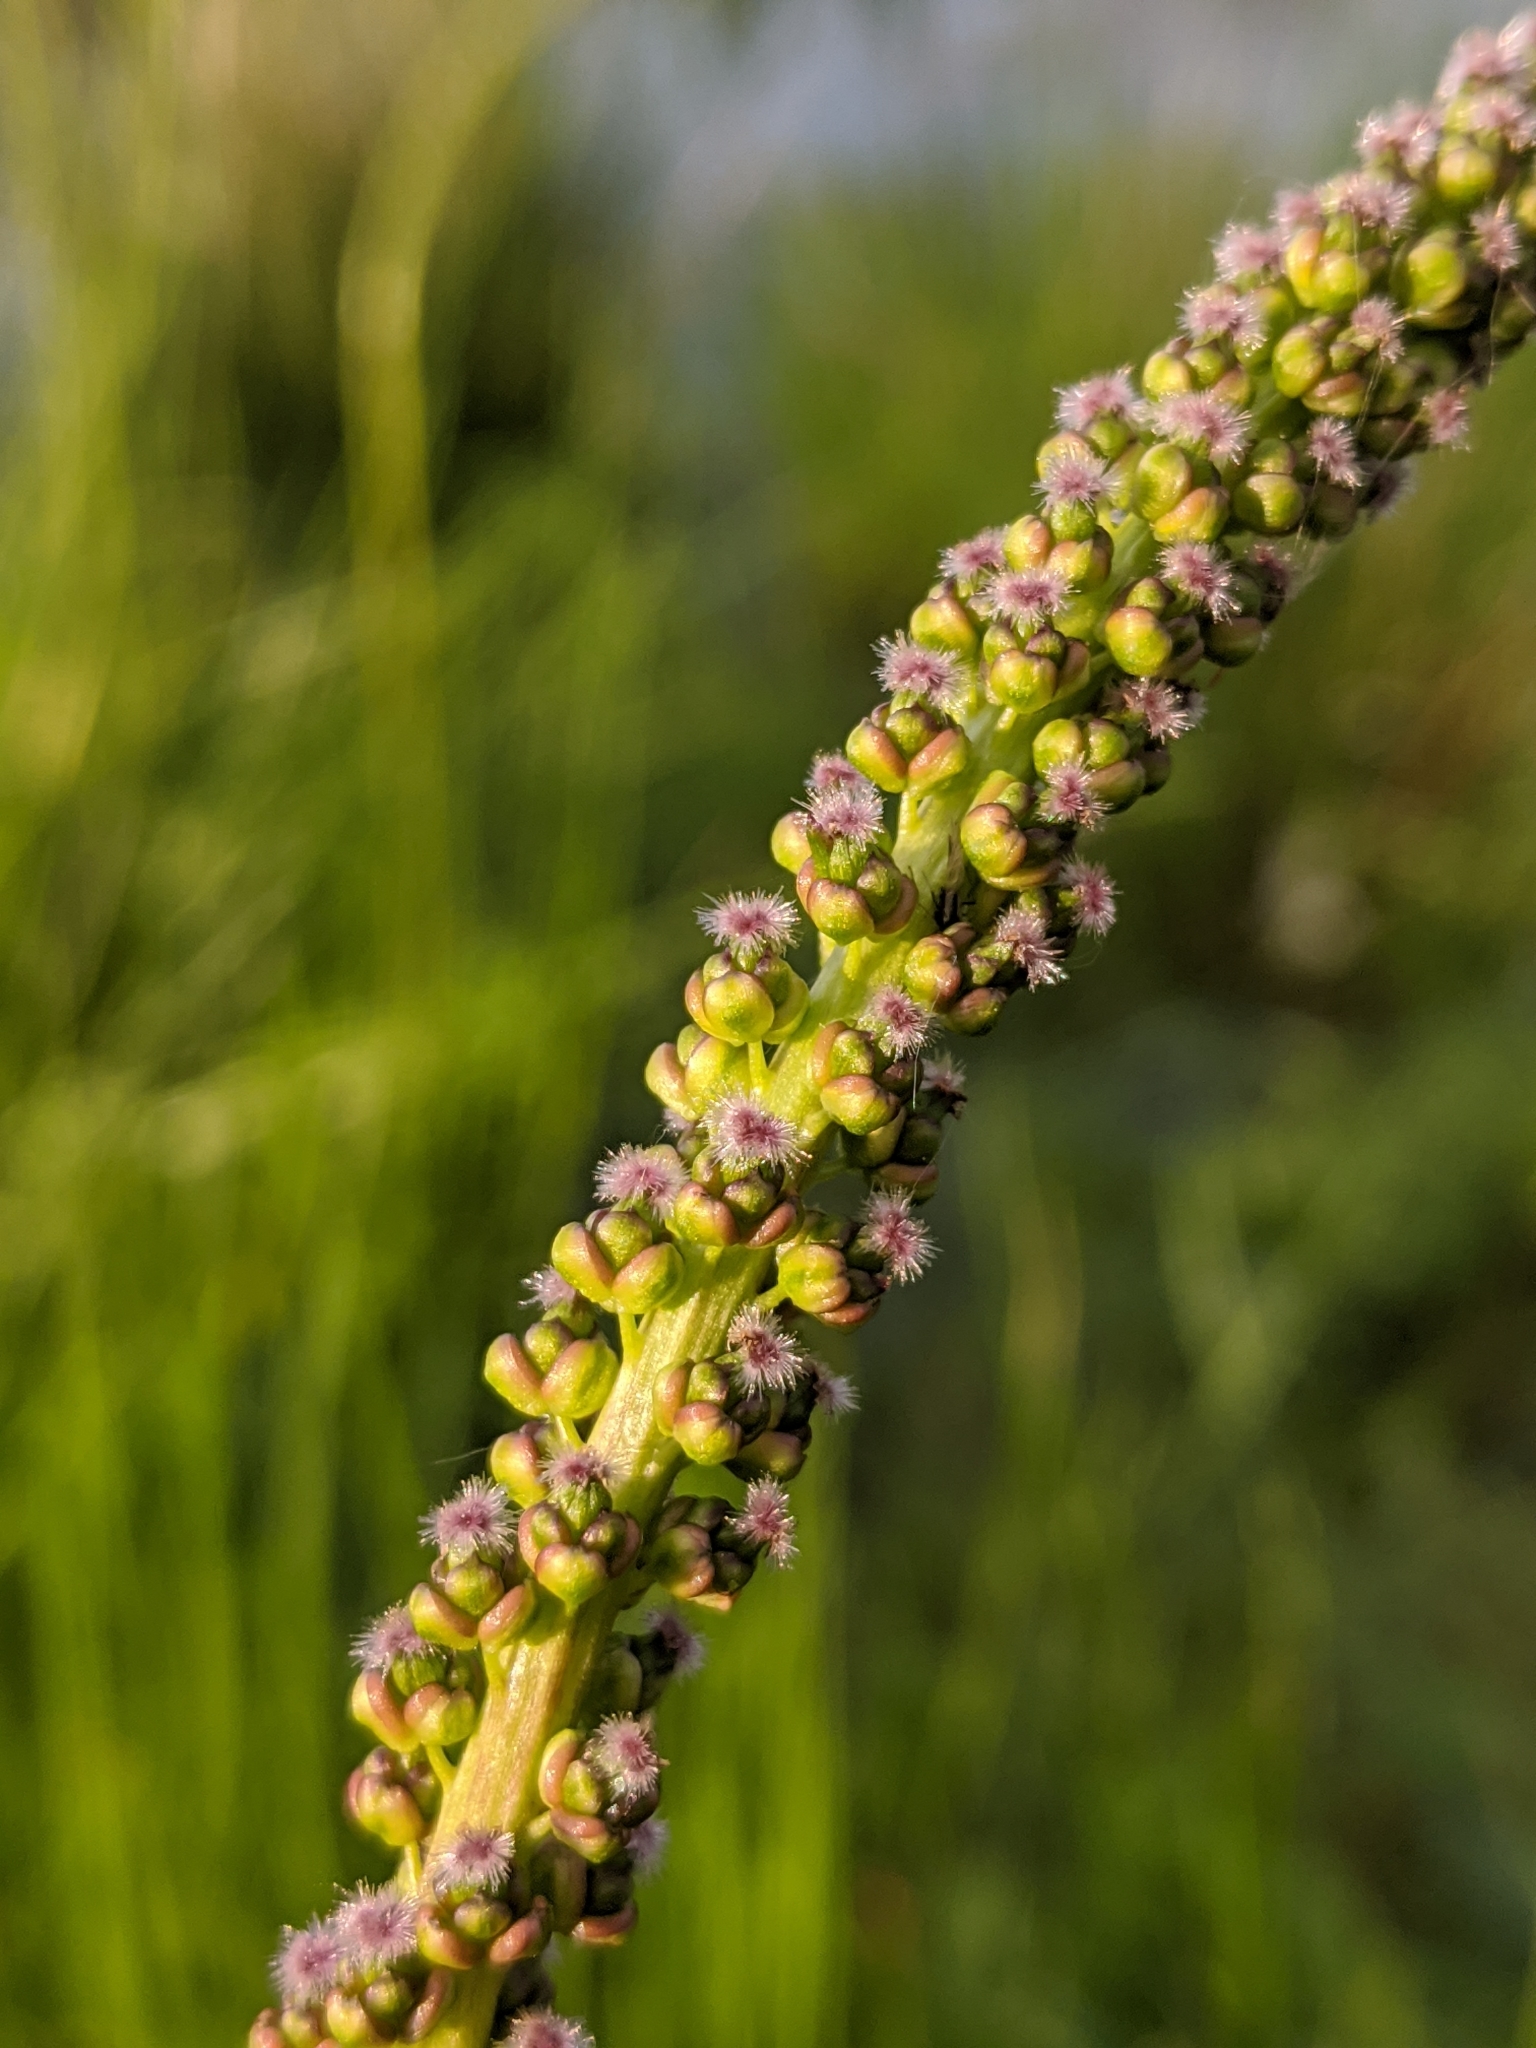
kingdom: Plantae
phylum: Tracheophyta
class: Liliopsida
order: Alismatales
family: Juncaginaceae
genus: Triglochin
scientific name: Triglochin maritima
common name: Sea arrowgrass
